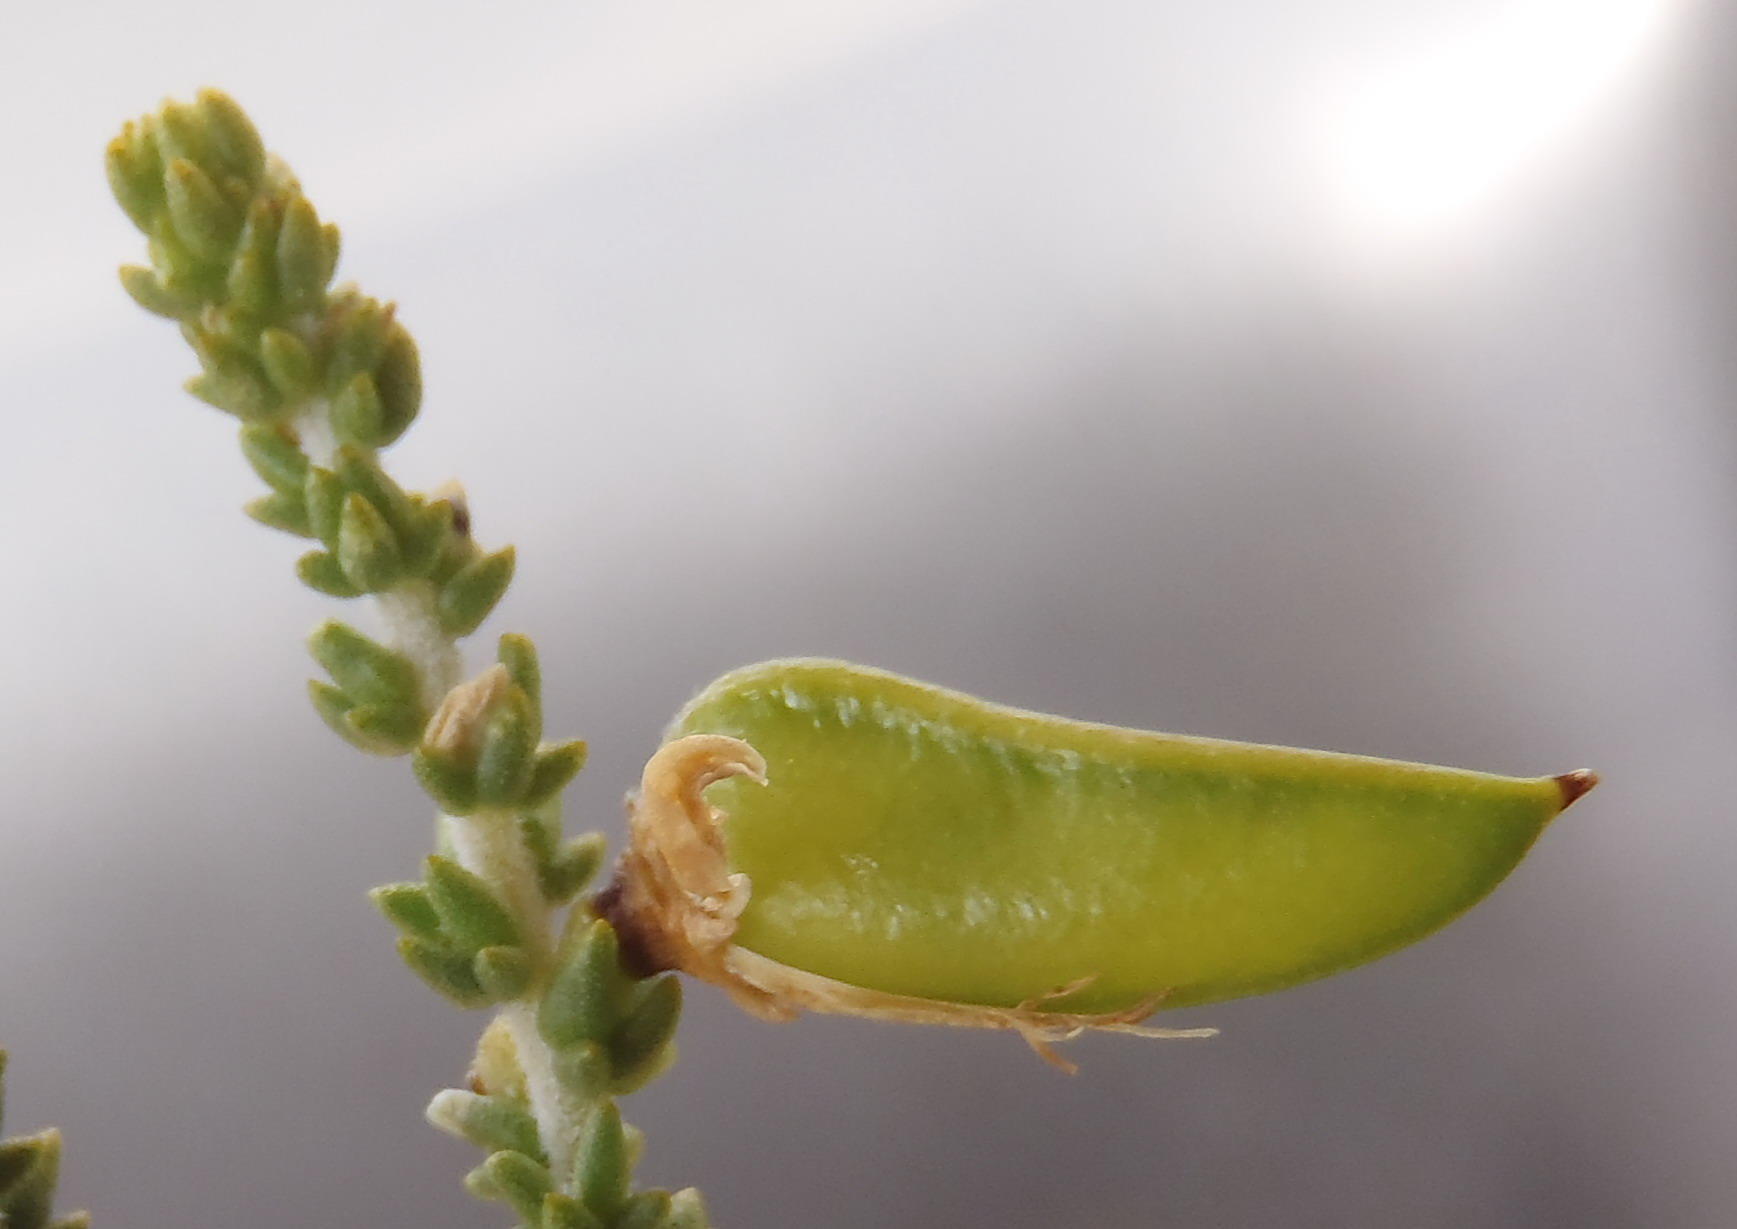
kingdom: Plantae
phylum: Tracheophyta
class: Magnoliopsida
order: Fabales
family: Fabaceae
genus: Aspalathus
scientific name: Aspalathus pinguis
